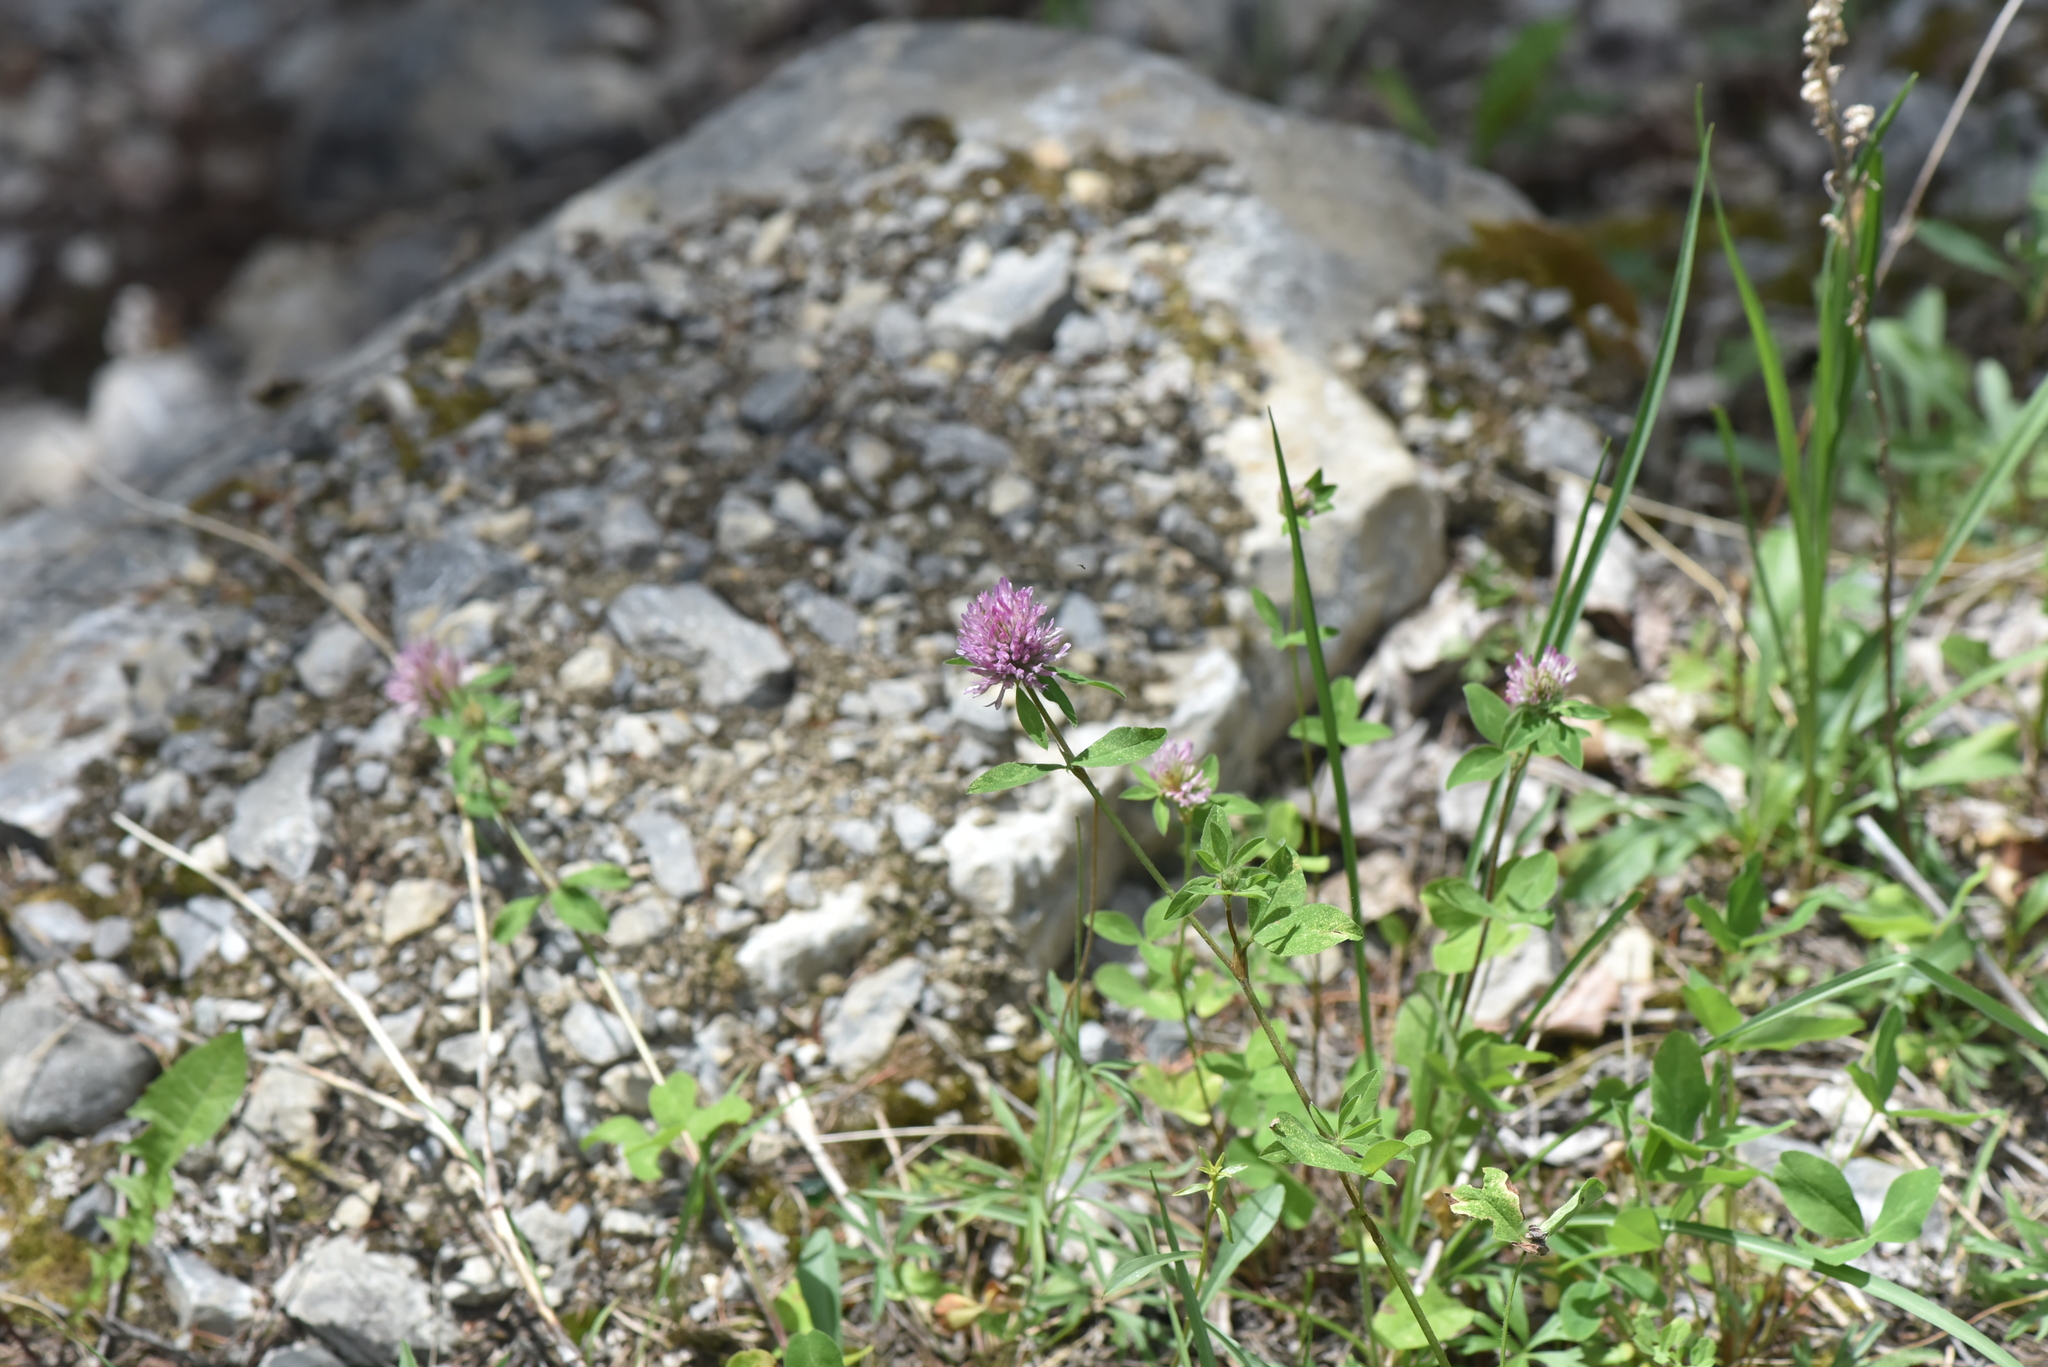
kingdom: Plantae
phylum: Tracheophyta
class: Magnoliopsida
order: Fabales
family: Fabaceae
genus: Trifolium
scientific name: Trifolium pratense
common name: Red clover
